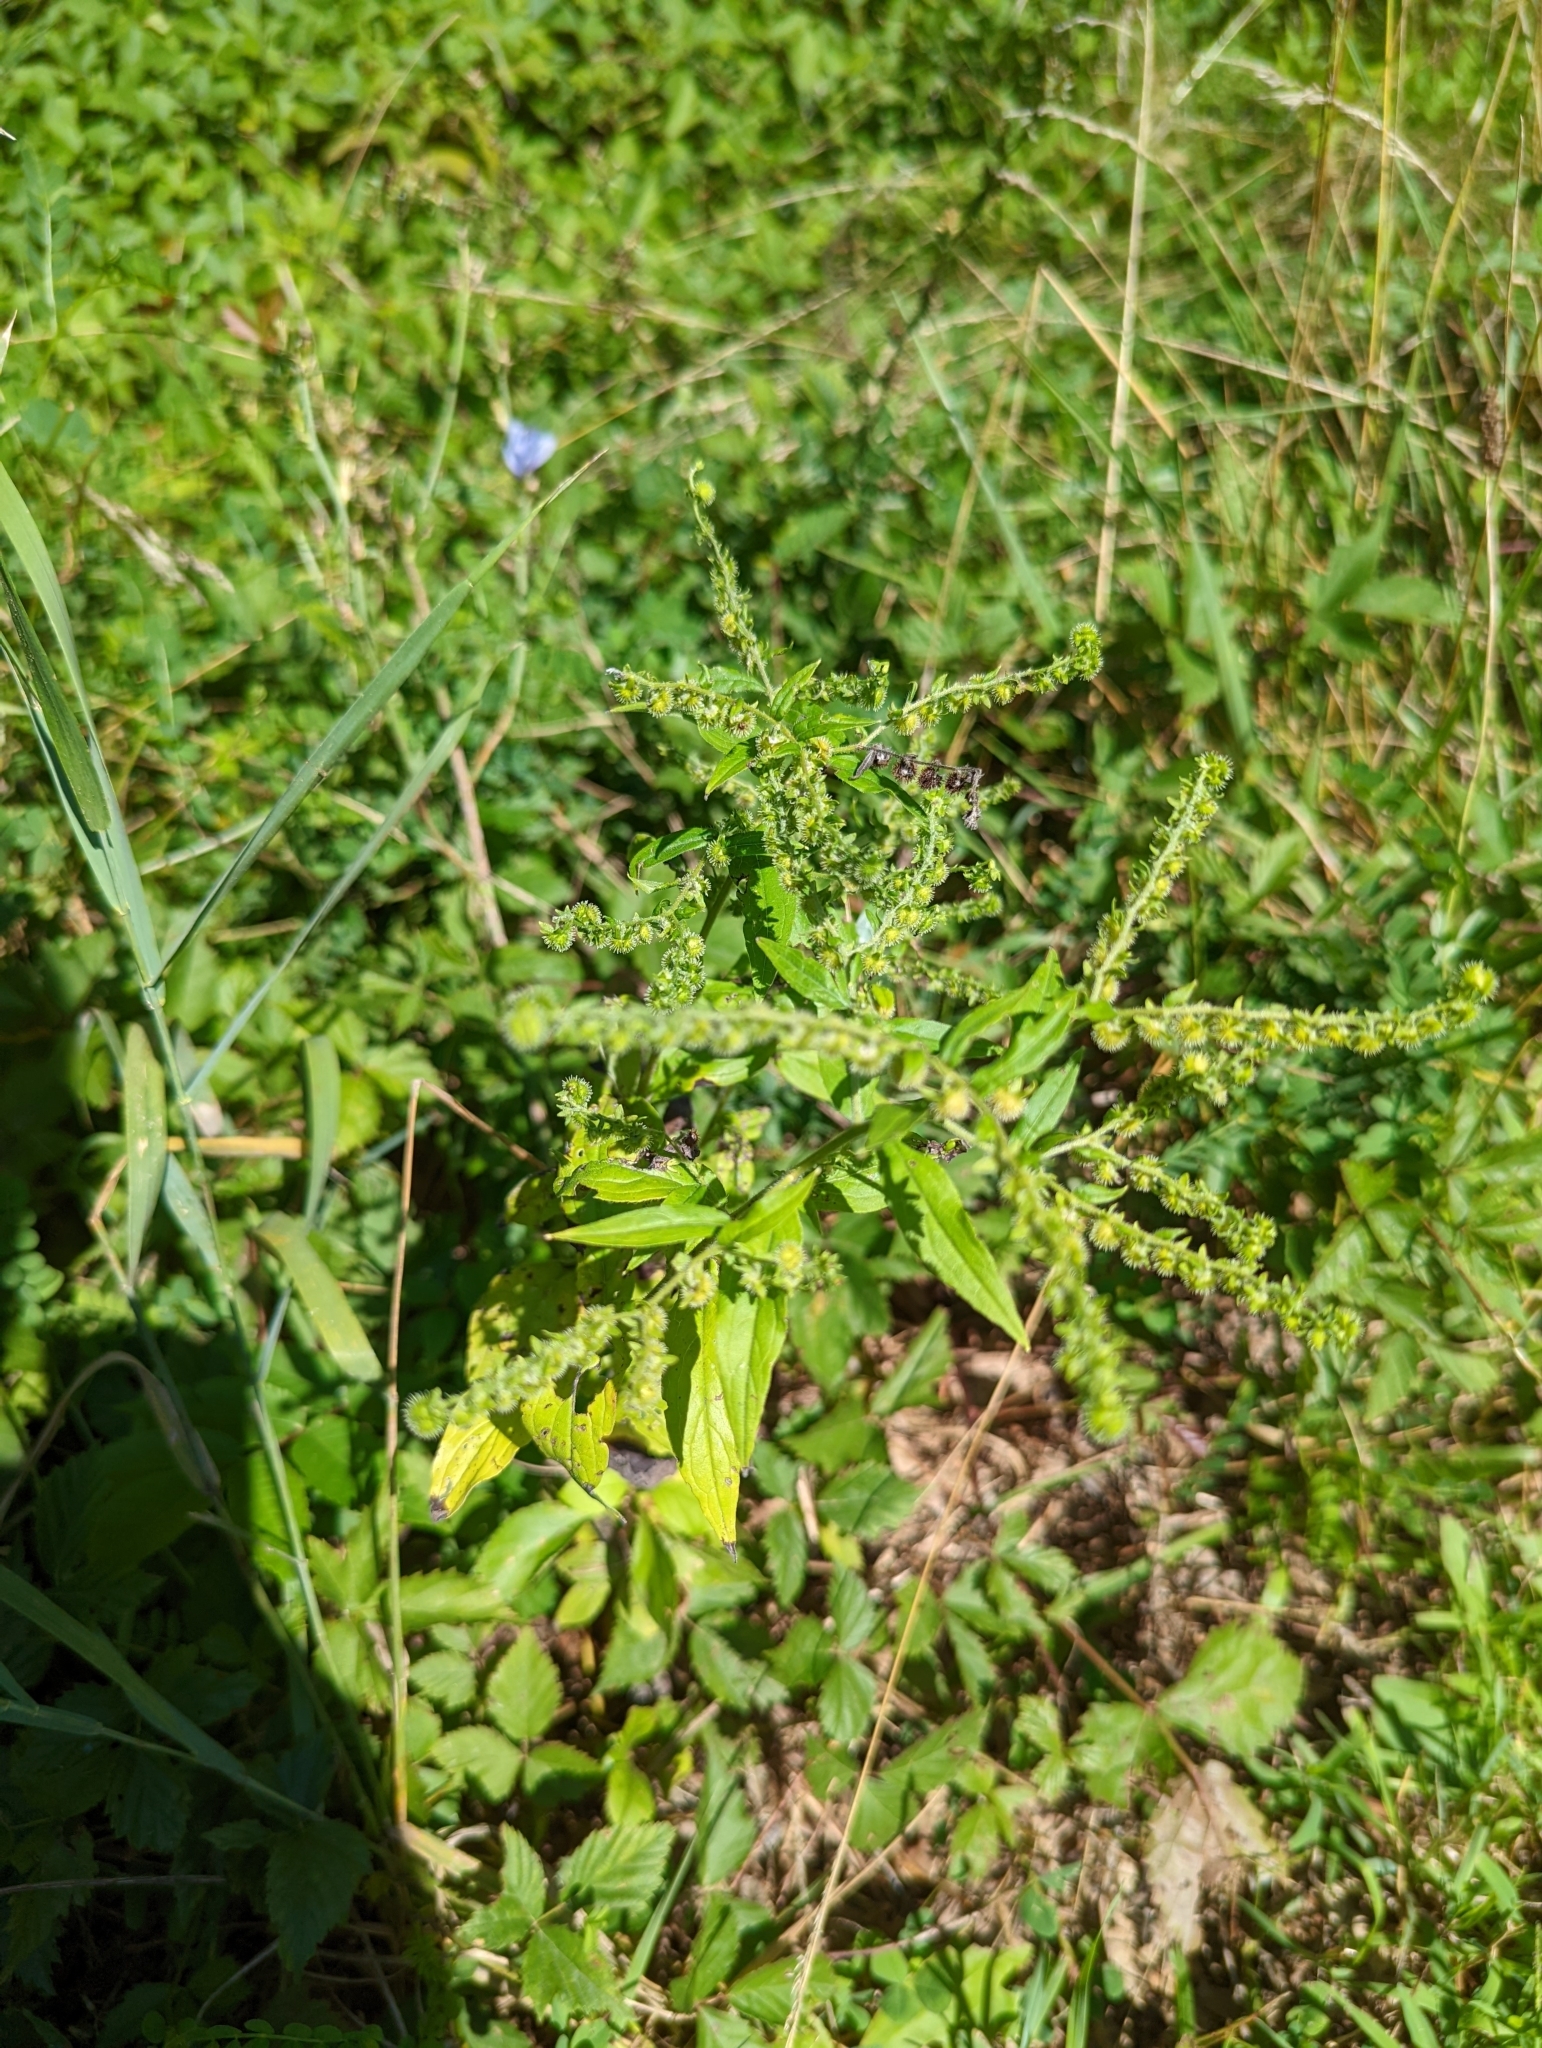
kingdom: Plantae
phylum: Tracheophyta
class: Magnoliopsida
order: Boraginales
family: Boraginaceae
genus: Hackelia
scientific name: Hackelia virginiana
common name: Beggar's-lice
